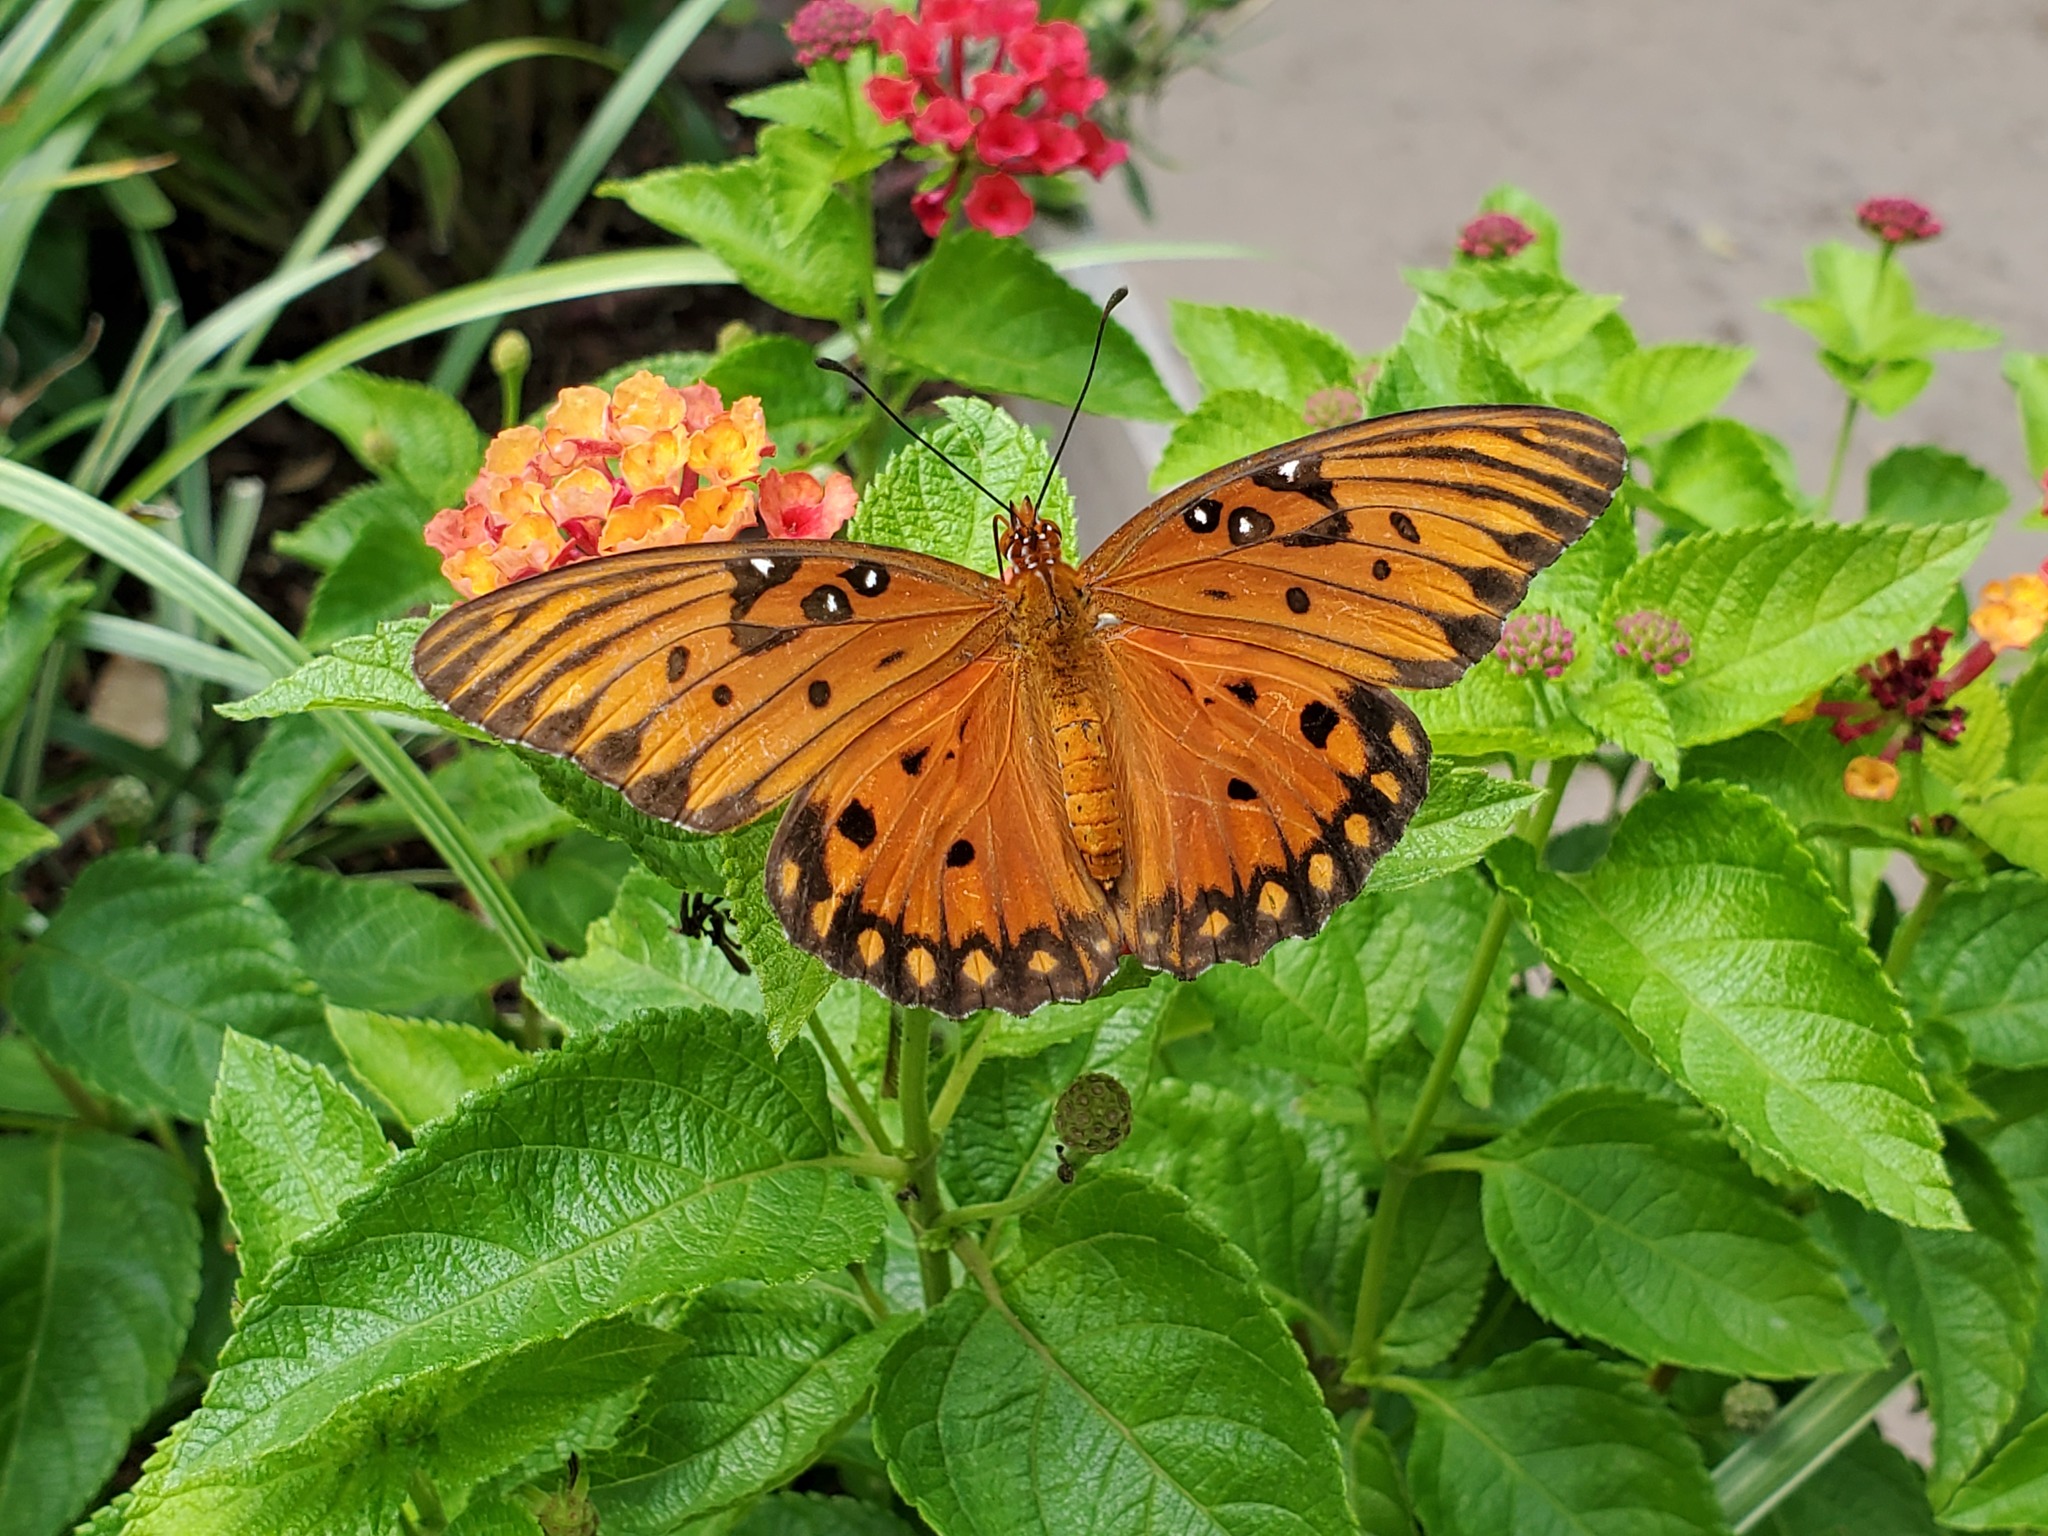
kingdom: Animalia
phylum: Arthropoda
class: Insecta
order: Lepidoptera
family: Nymphalidae
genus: Dione
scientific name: Dione vanillae
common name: Gulf fritillary
